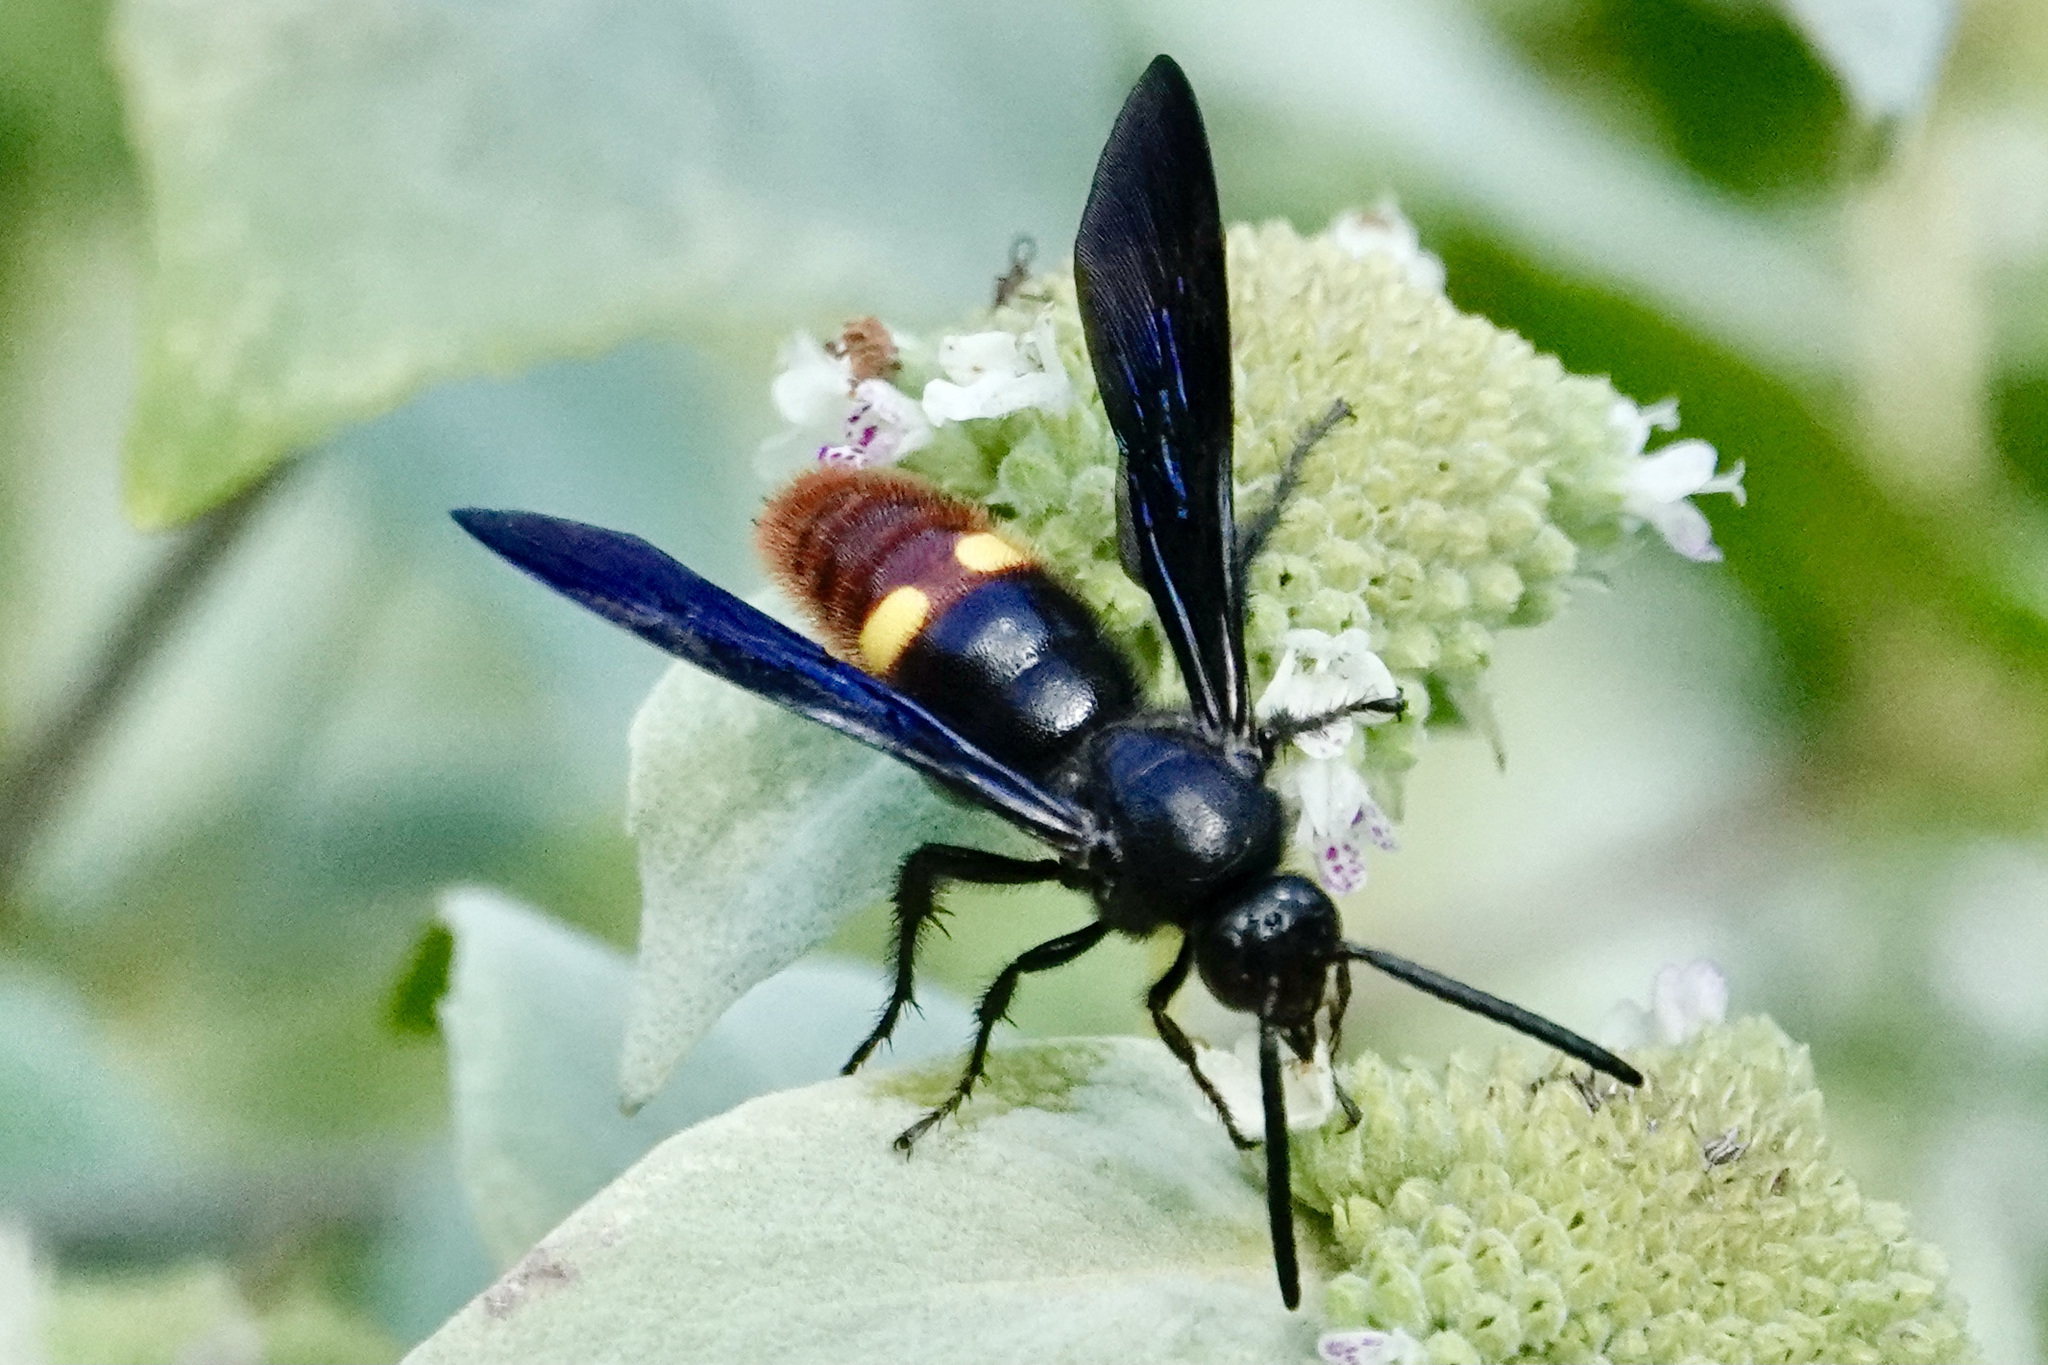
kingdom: Animalia
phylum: Arthropoda
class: Insecta
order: Hymenoptera
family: Scoliidae
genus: Scolia
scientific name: Scolia dubia
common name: Blue-winged scoliid wasp
